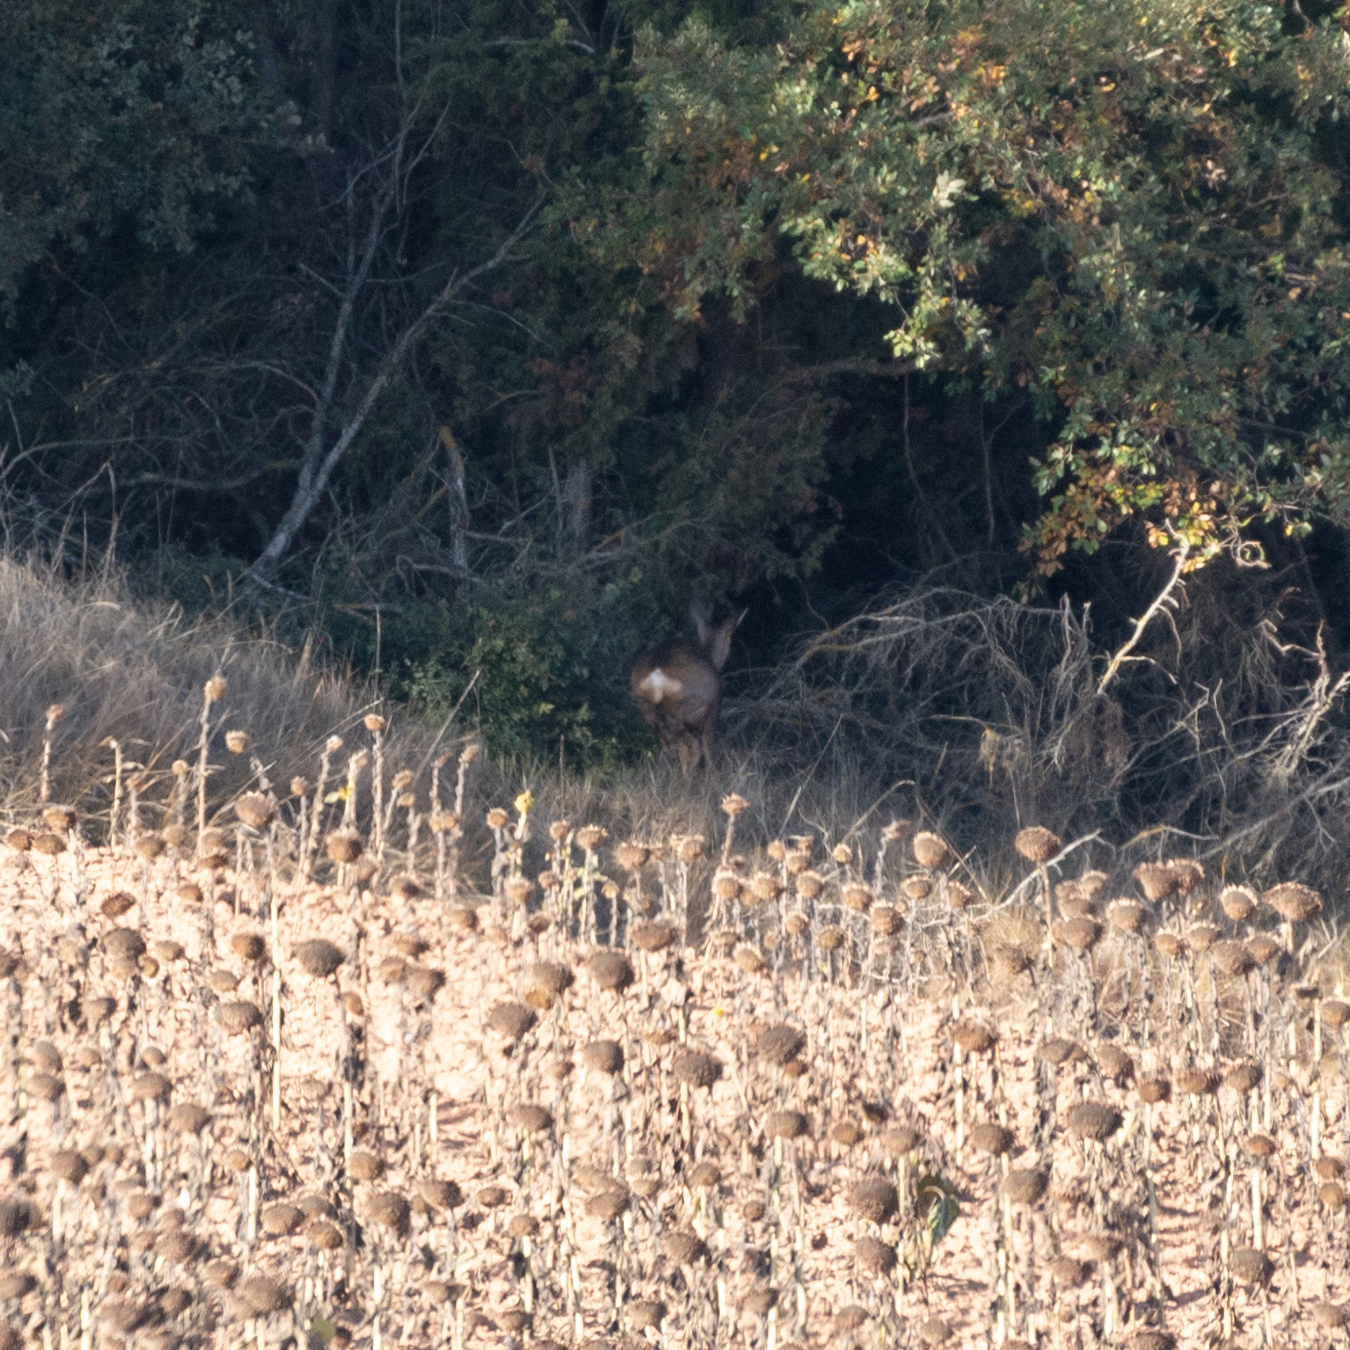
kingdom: Animalia
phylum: Chordata
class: Mammalia
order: Artiodactyla
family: Cervidae
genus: Capreolus
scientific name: Capreolus capreolus
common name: Western roe deer
